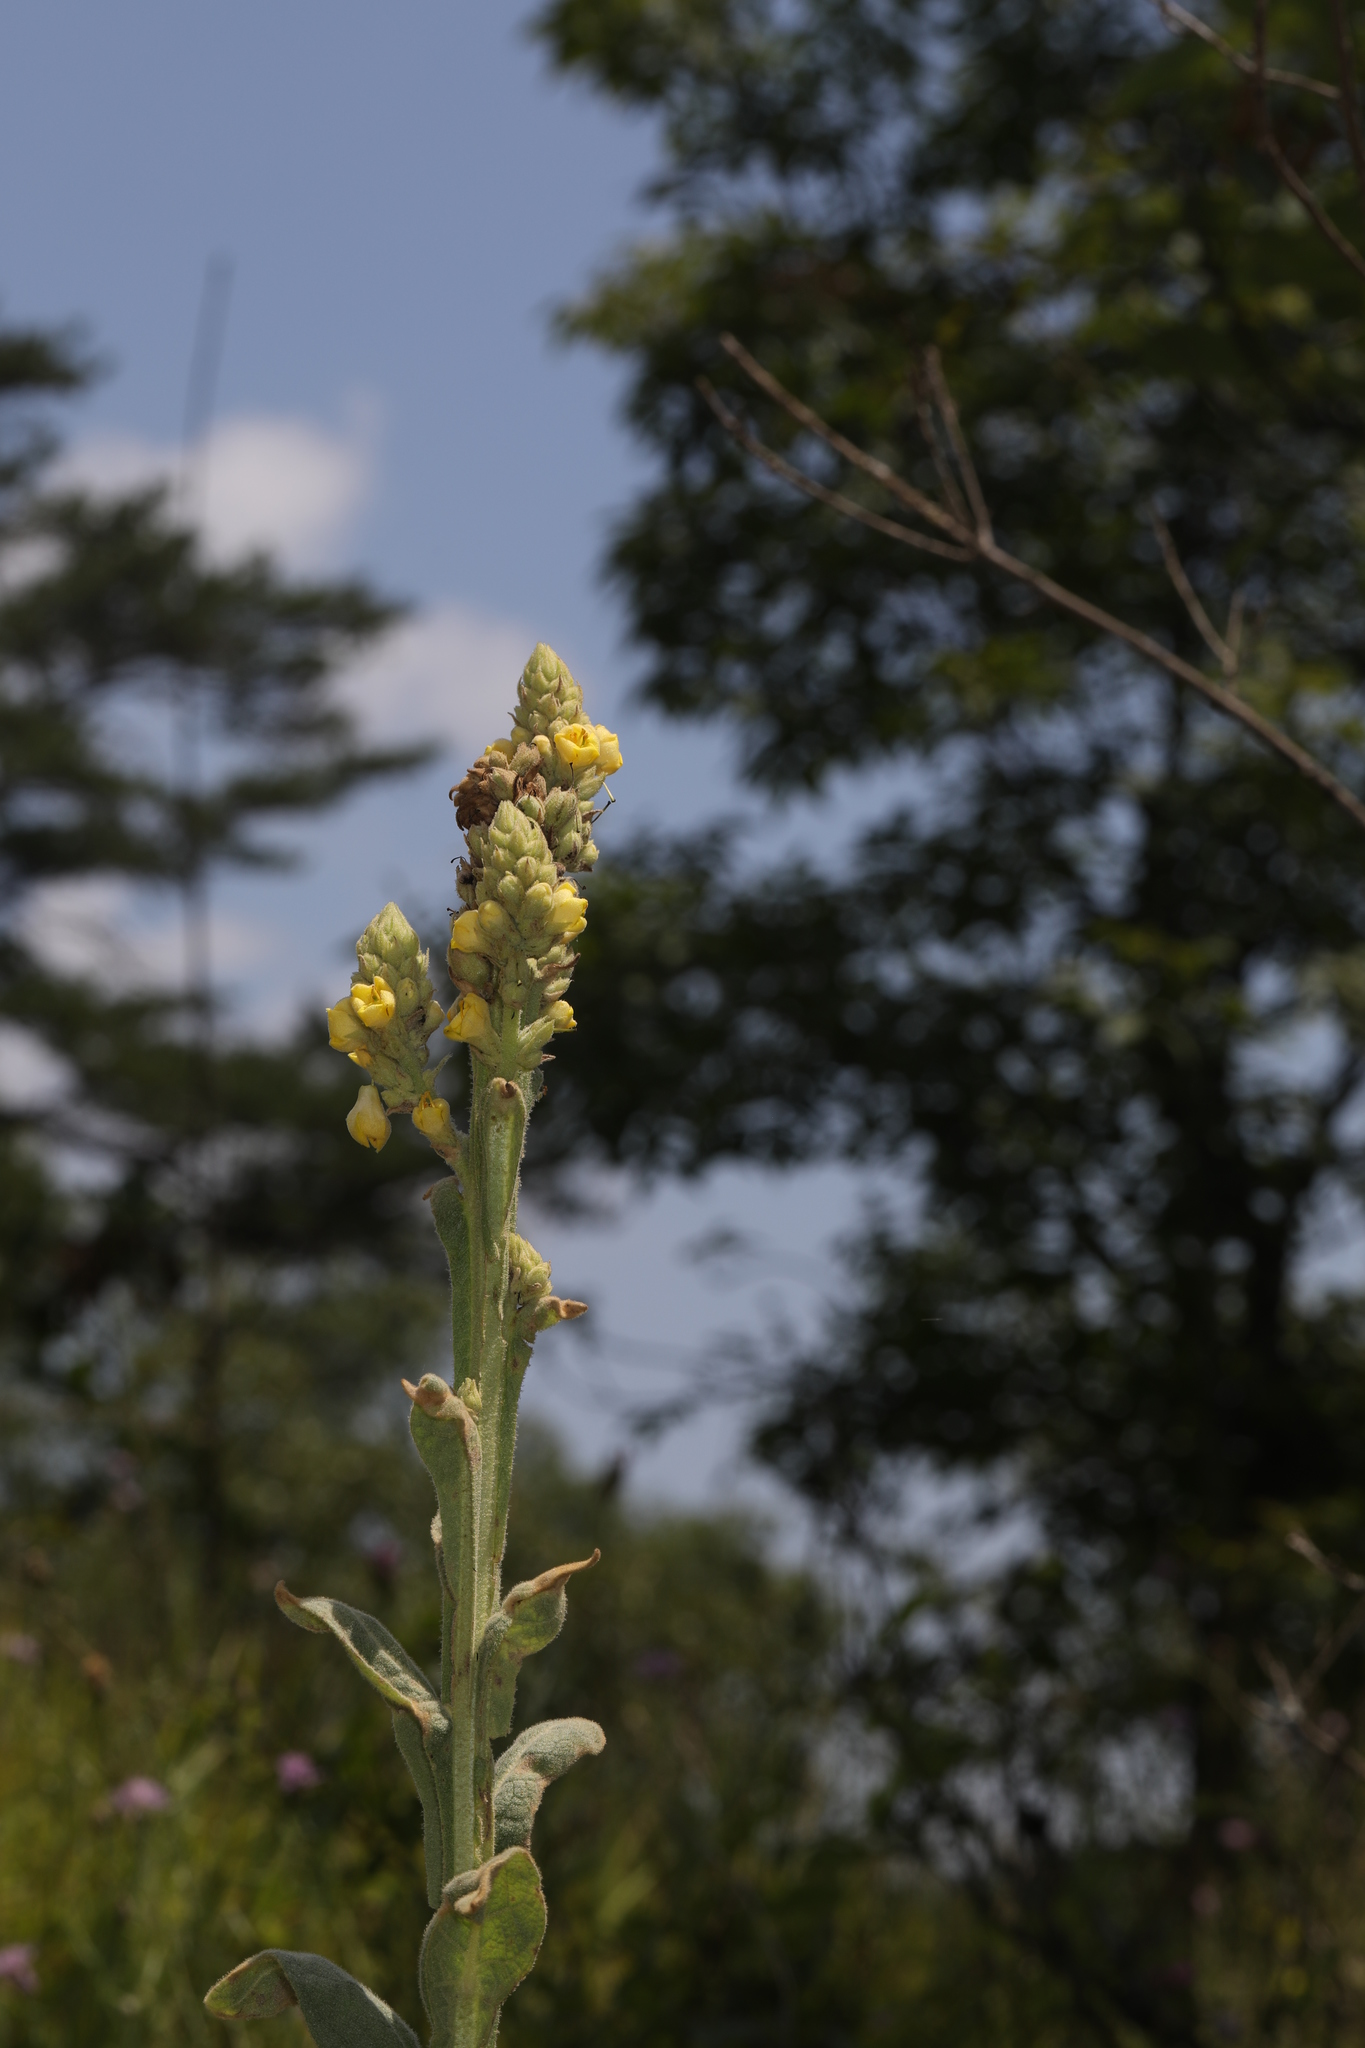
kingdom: Plantae
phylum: Tracheophyta
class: Magnoliopsida
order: Lamiales
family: Scrophulariaceae
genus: Verbascum
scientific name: Verbascum thapsus
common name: Common mullein
